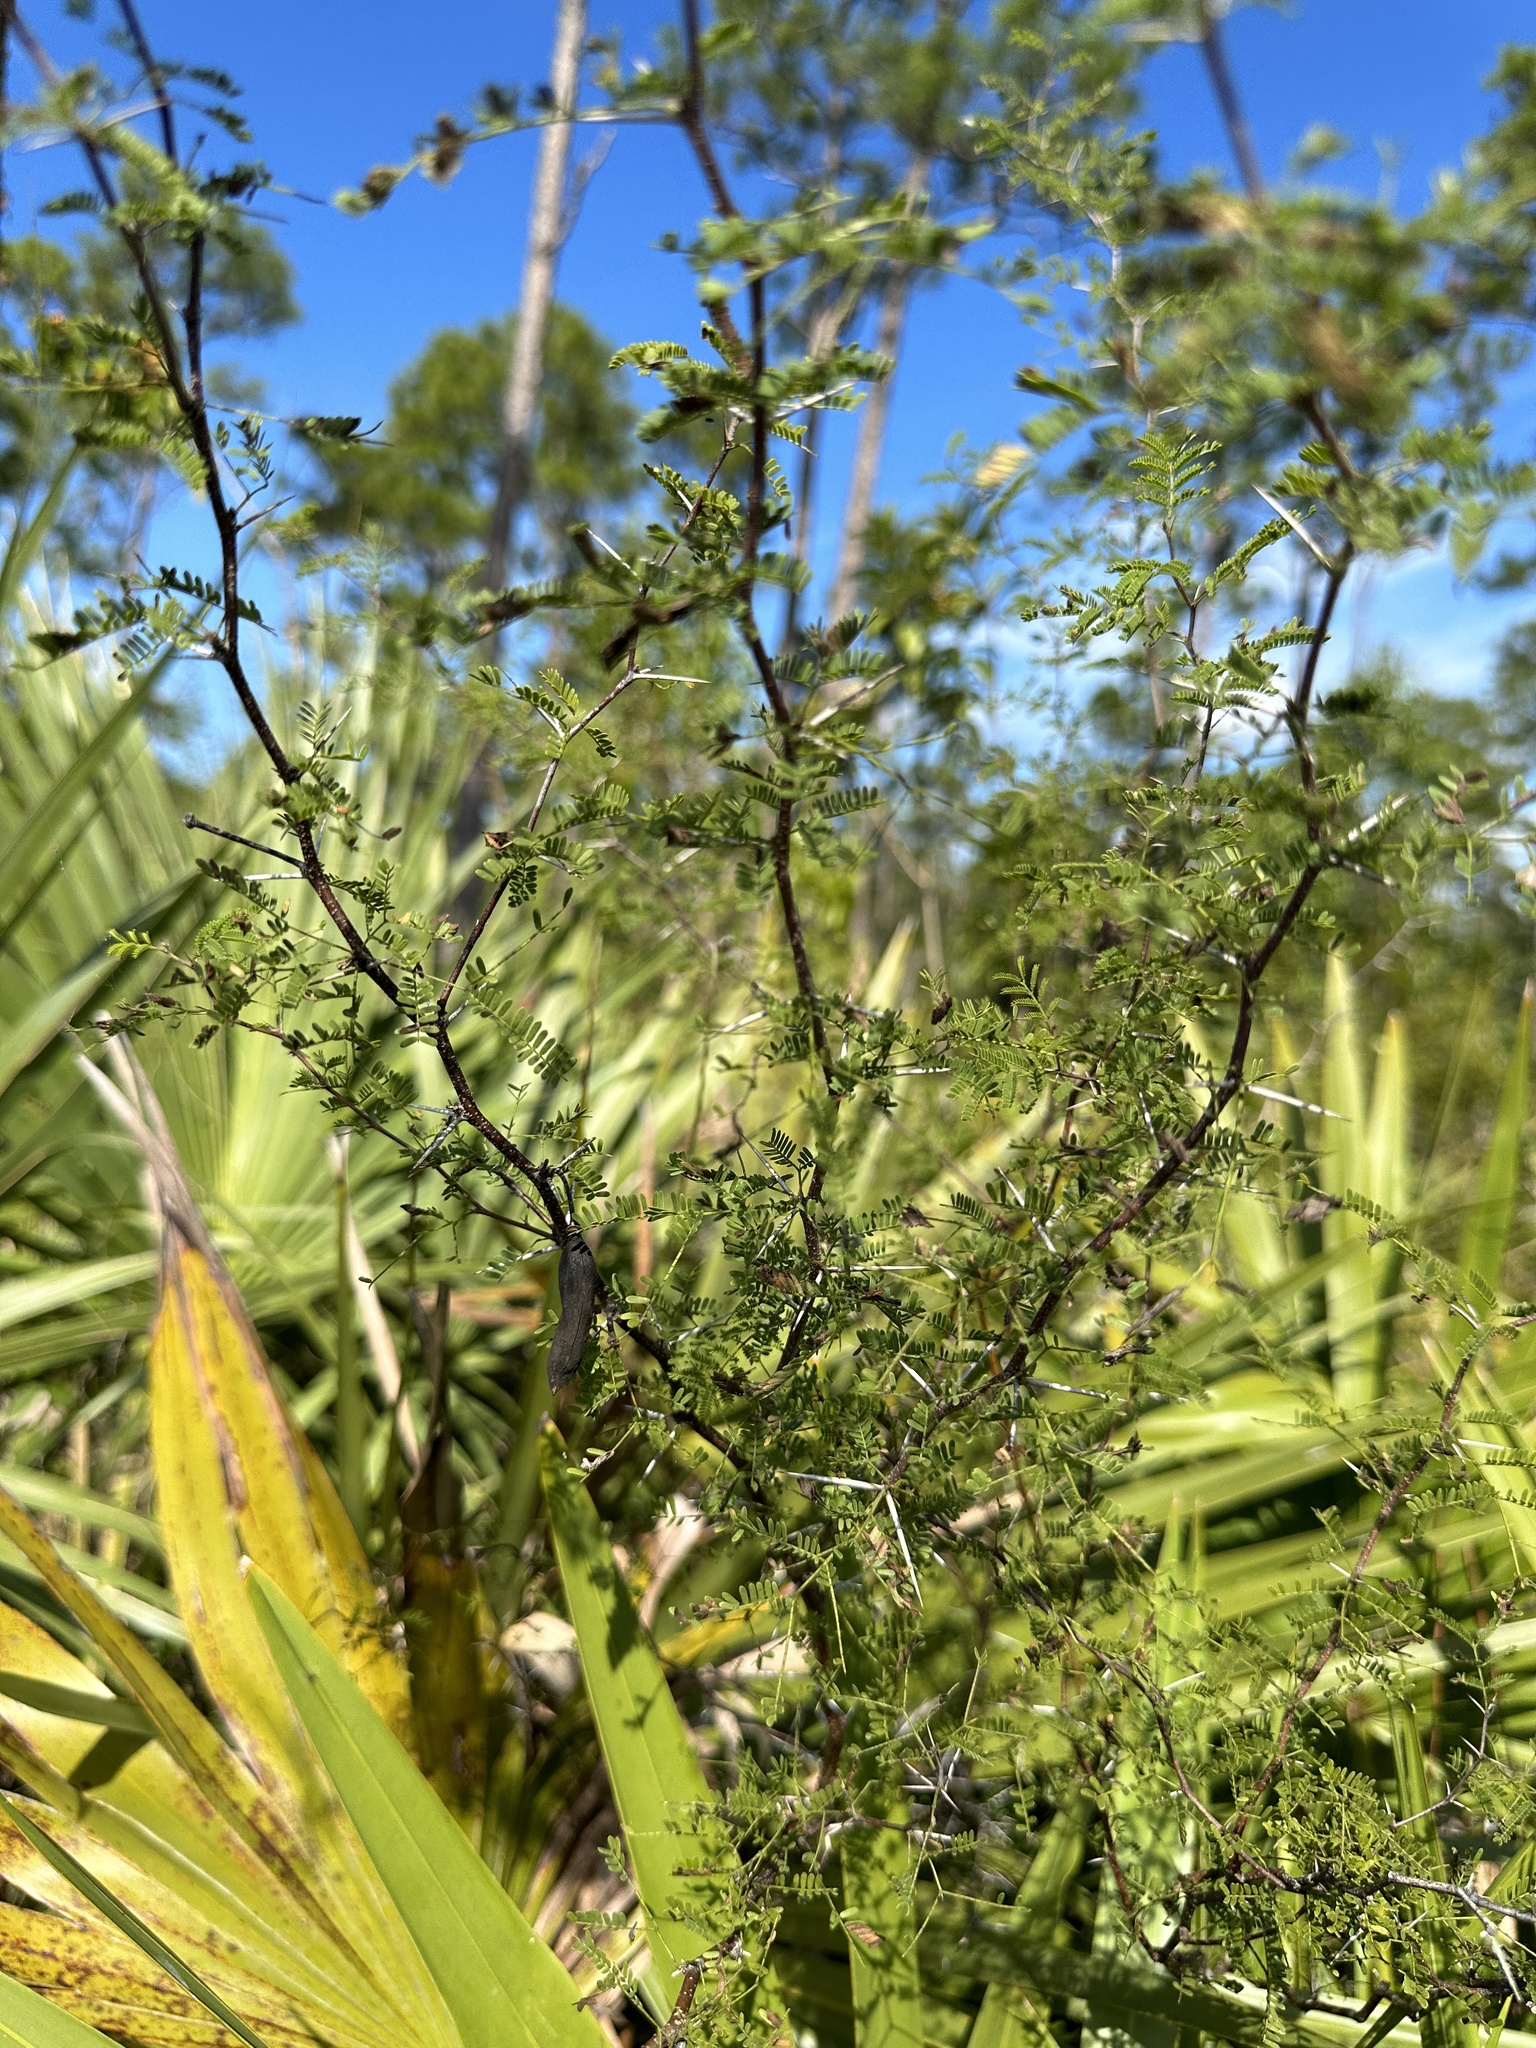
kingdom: Plantae
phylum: Tracheophyta
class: Magnoliopsida
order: Fabales
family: Fabaceae
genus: Vachellia
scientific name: Vachellia farnesiana
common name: Sweet acacia
